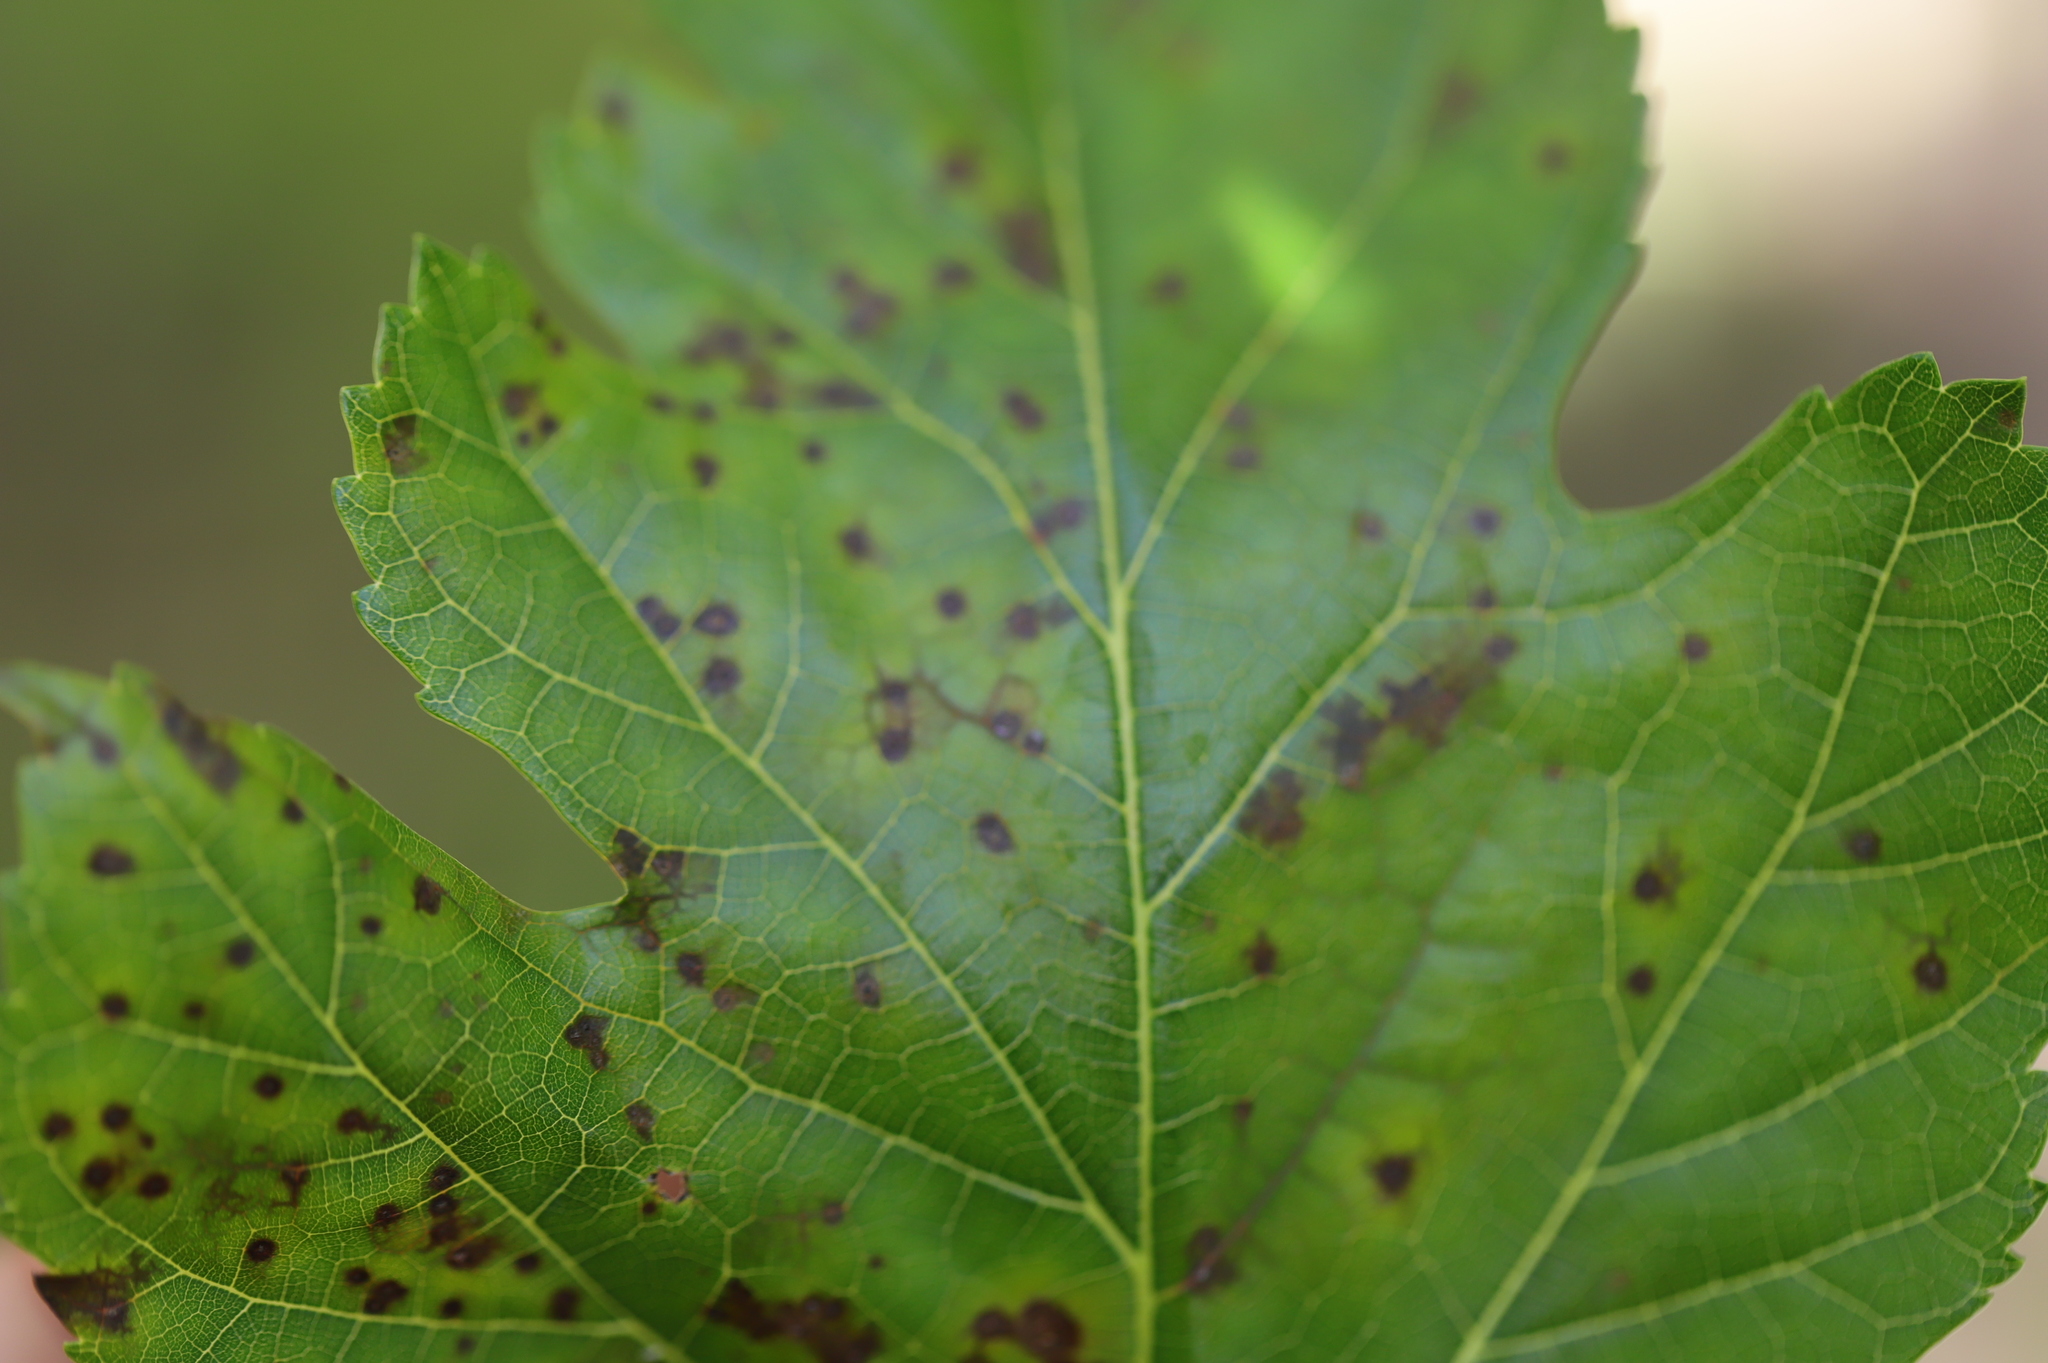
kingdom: Fungi
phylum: Ascomycota
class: Dothideomycetes
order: Mycosphaerellales
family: Mycosphaerellaceae
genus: Cercospora
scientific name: Cercospora moricola
